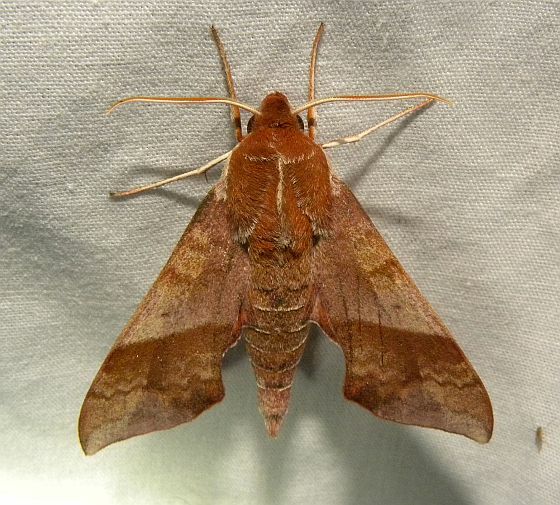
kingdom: Animalia
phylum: Arthropoda
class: Insecta
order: Lepidoptera
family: Sphingidae
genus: Darapsa
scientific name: Darapsa choerilus
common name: Azalea sphinx
